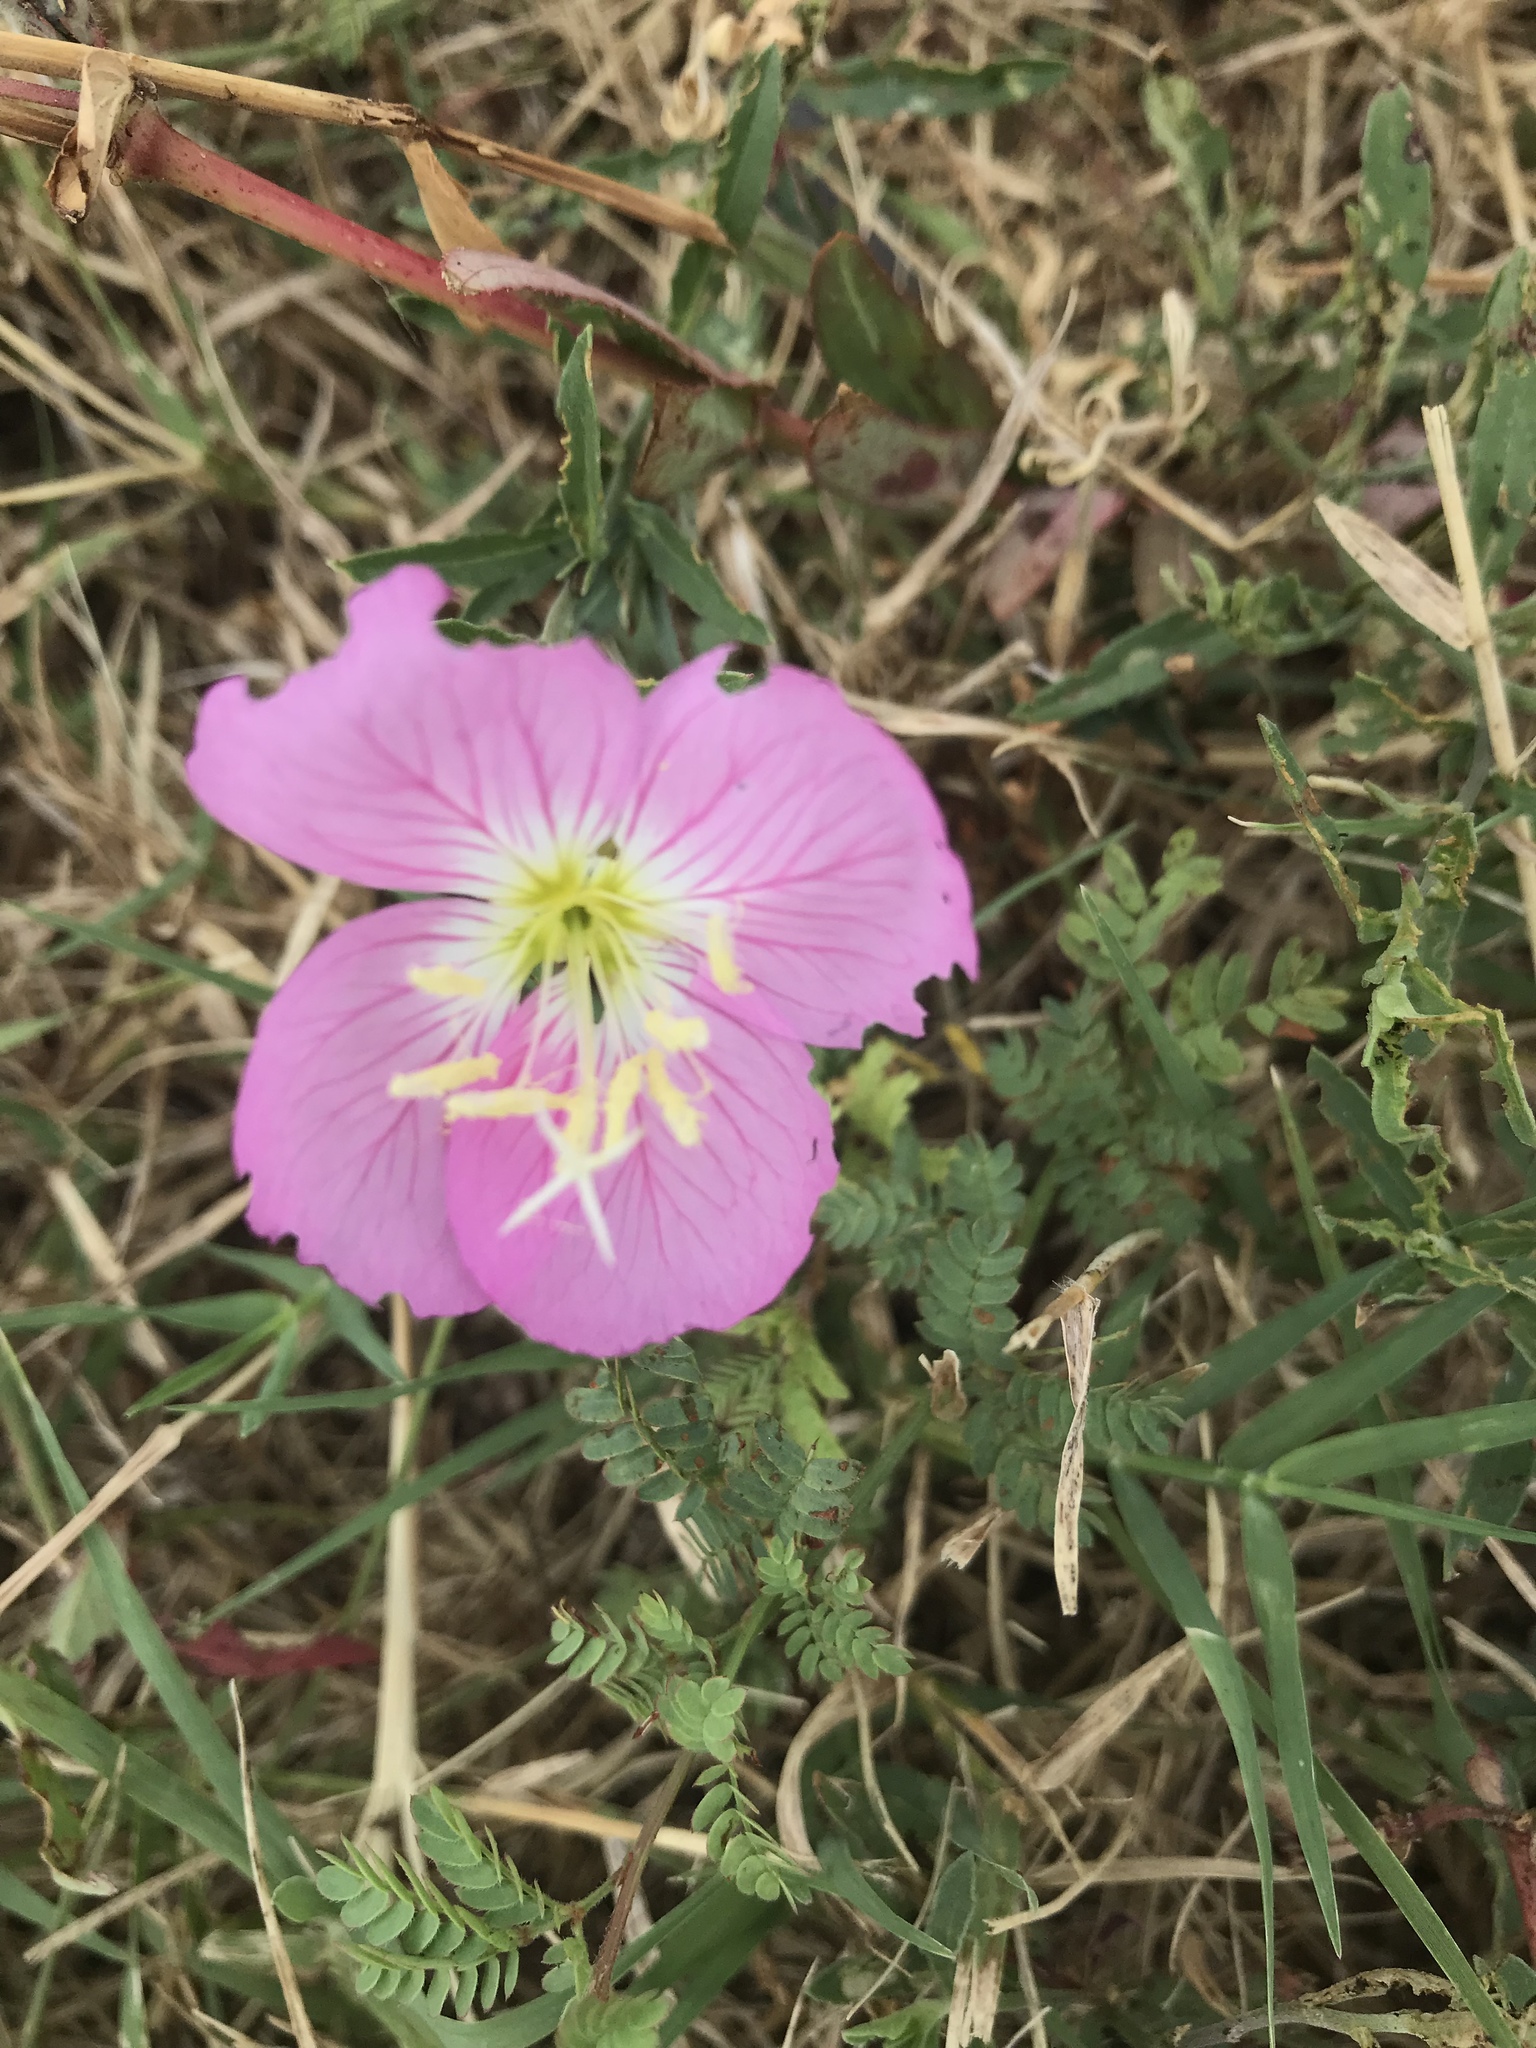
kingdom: Plantae
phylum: Tracheophyta
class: Magnoliopsida
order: Myrtales
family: Onagraceae
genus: Oenothera
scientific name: Oenothera speciosa
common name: White evening-primrose
